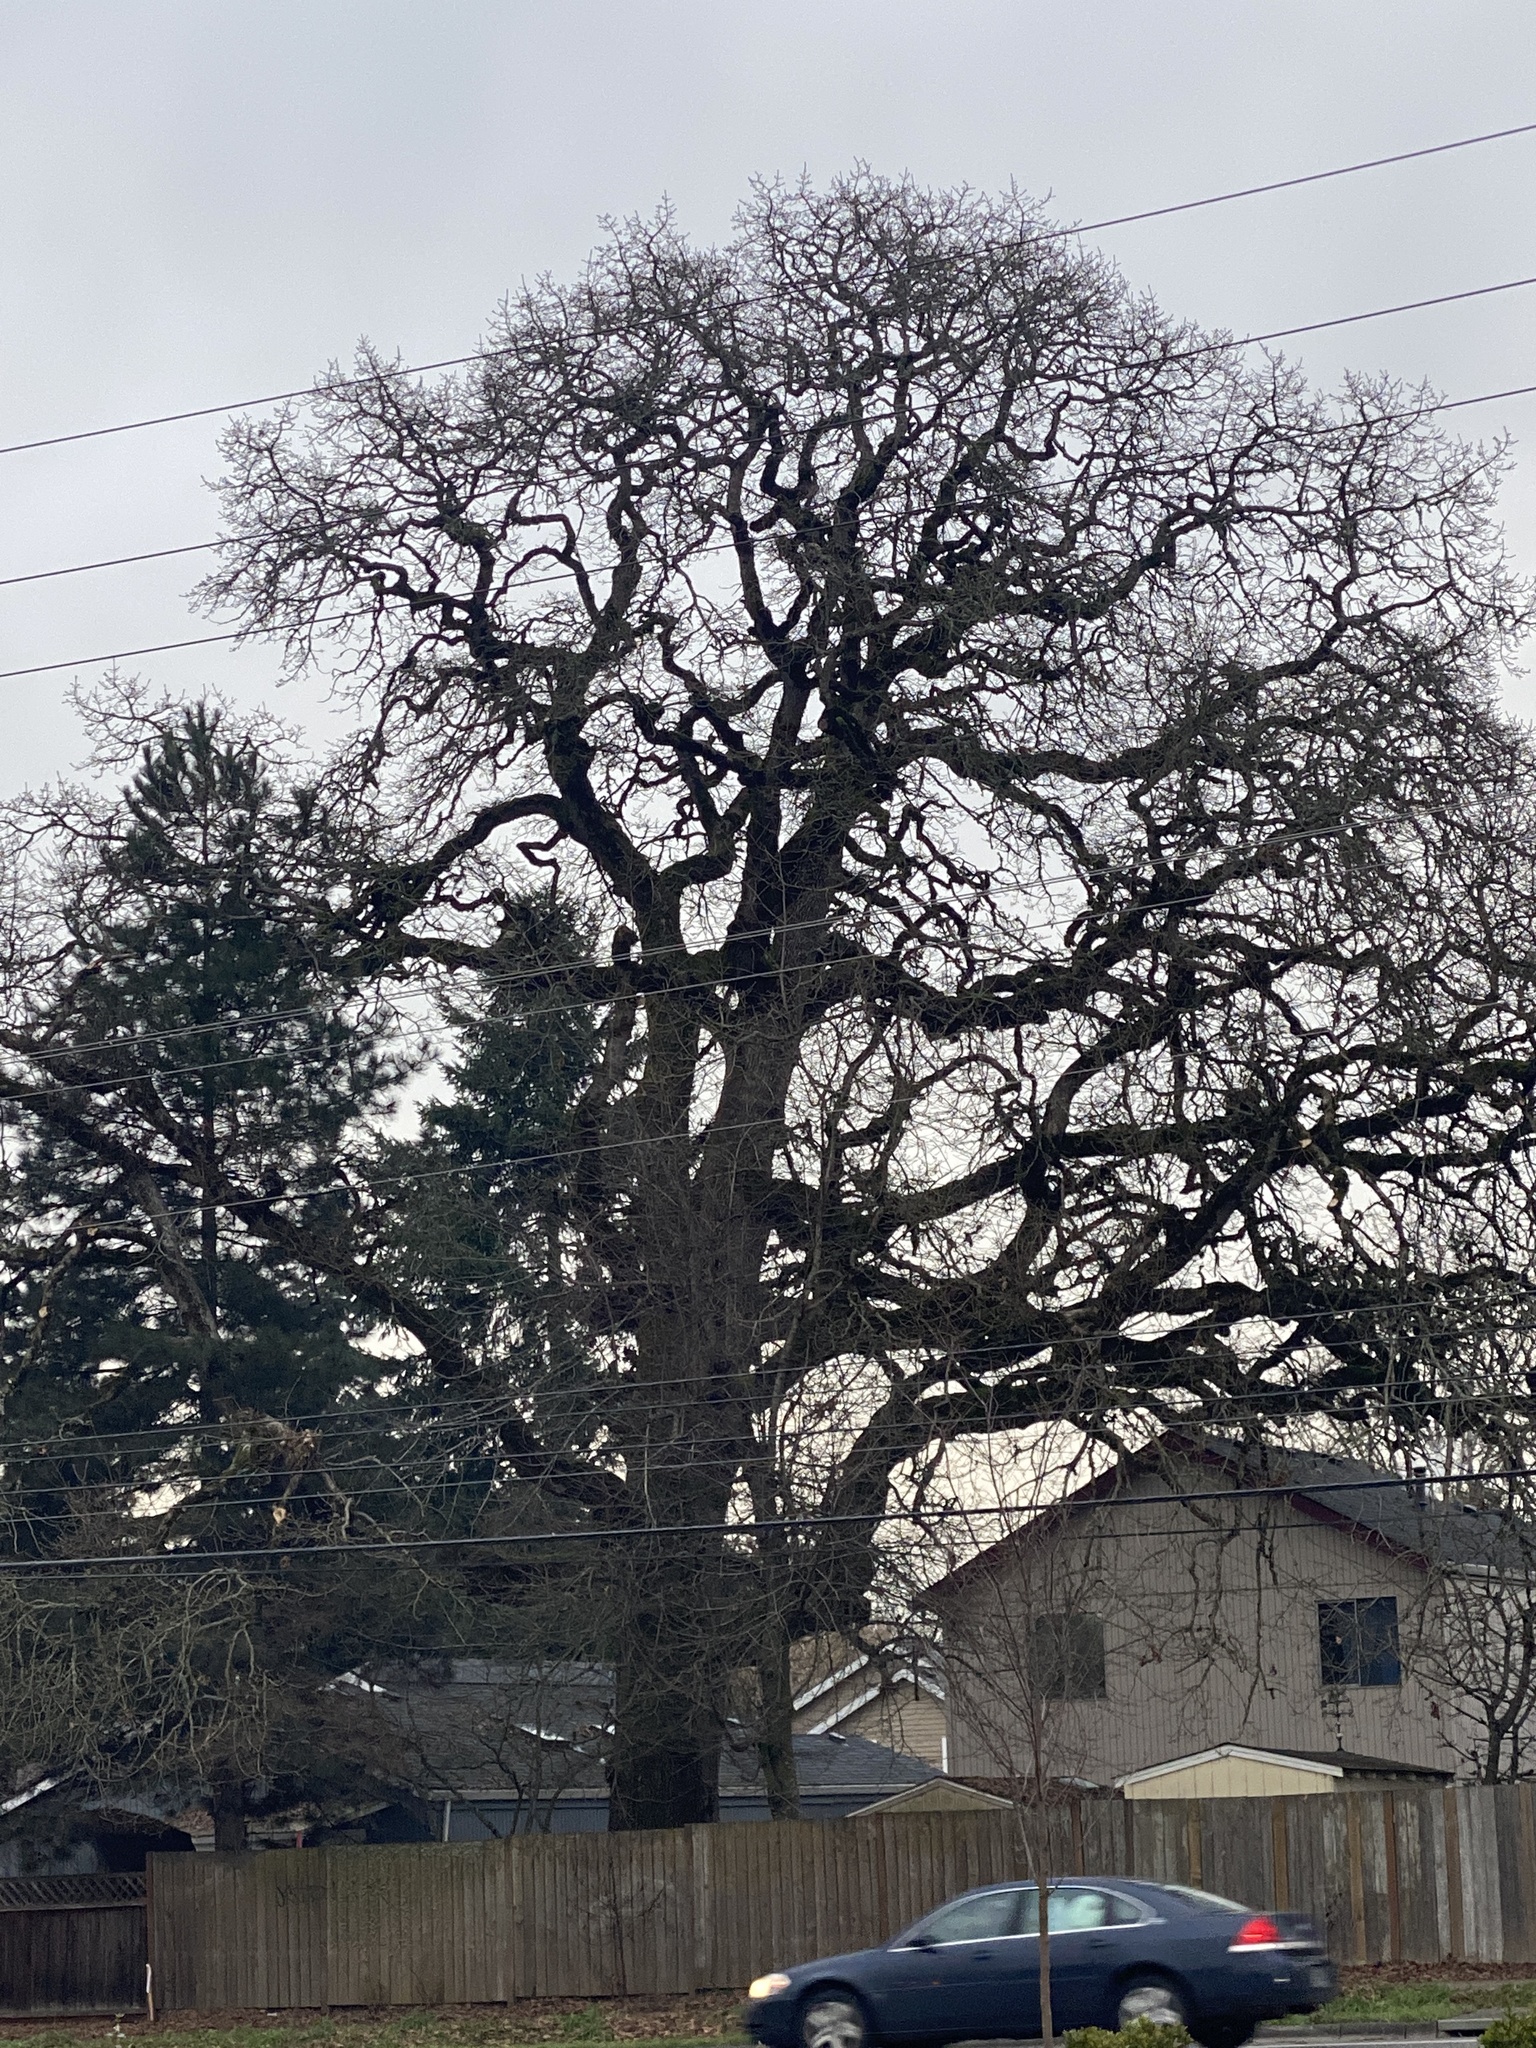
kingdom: Plantae
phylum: Tracheophyta
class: Magnoliopsida
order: Fagales
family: Fagaceae
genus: Quercus
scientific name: Quercus garryana
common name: Garry oak
